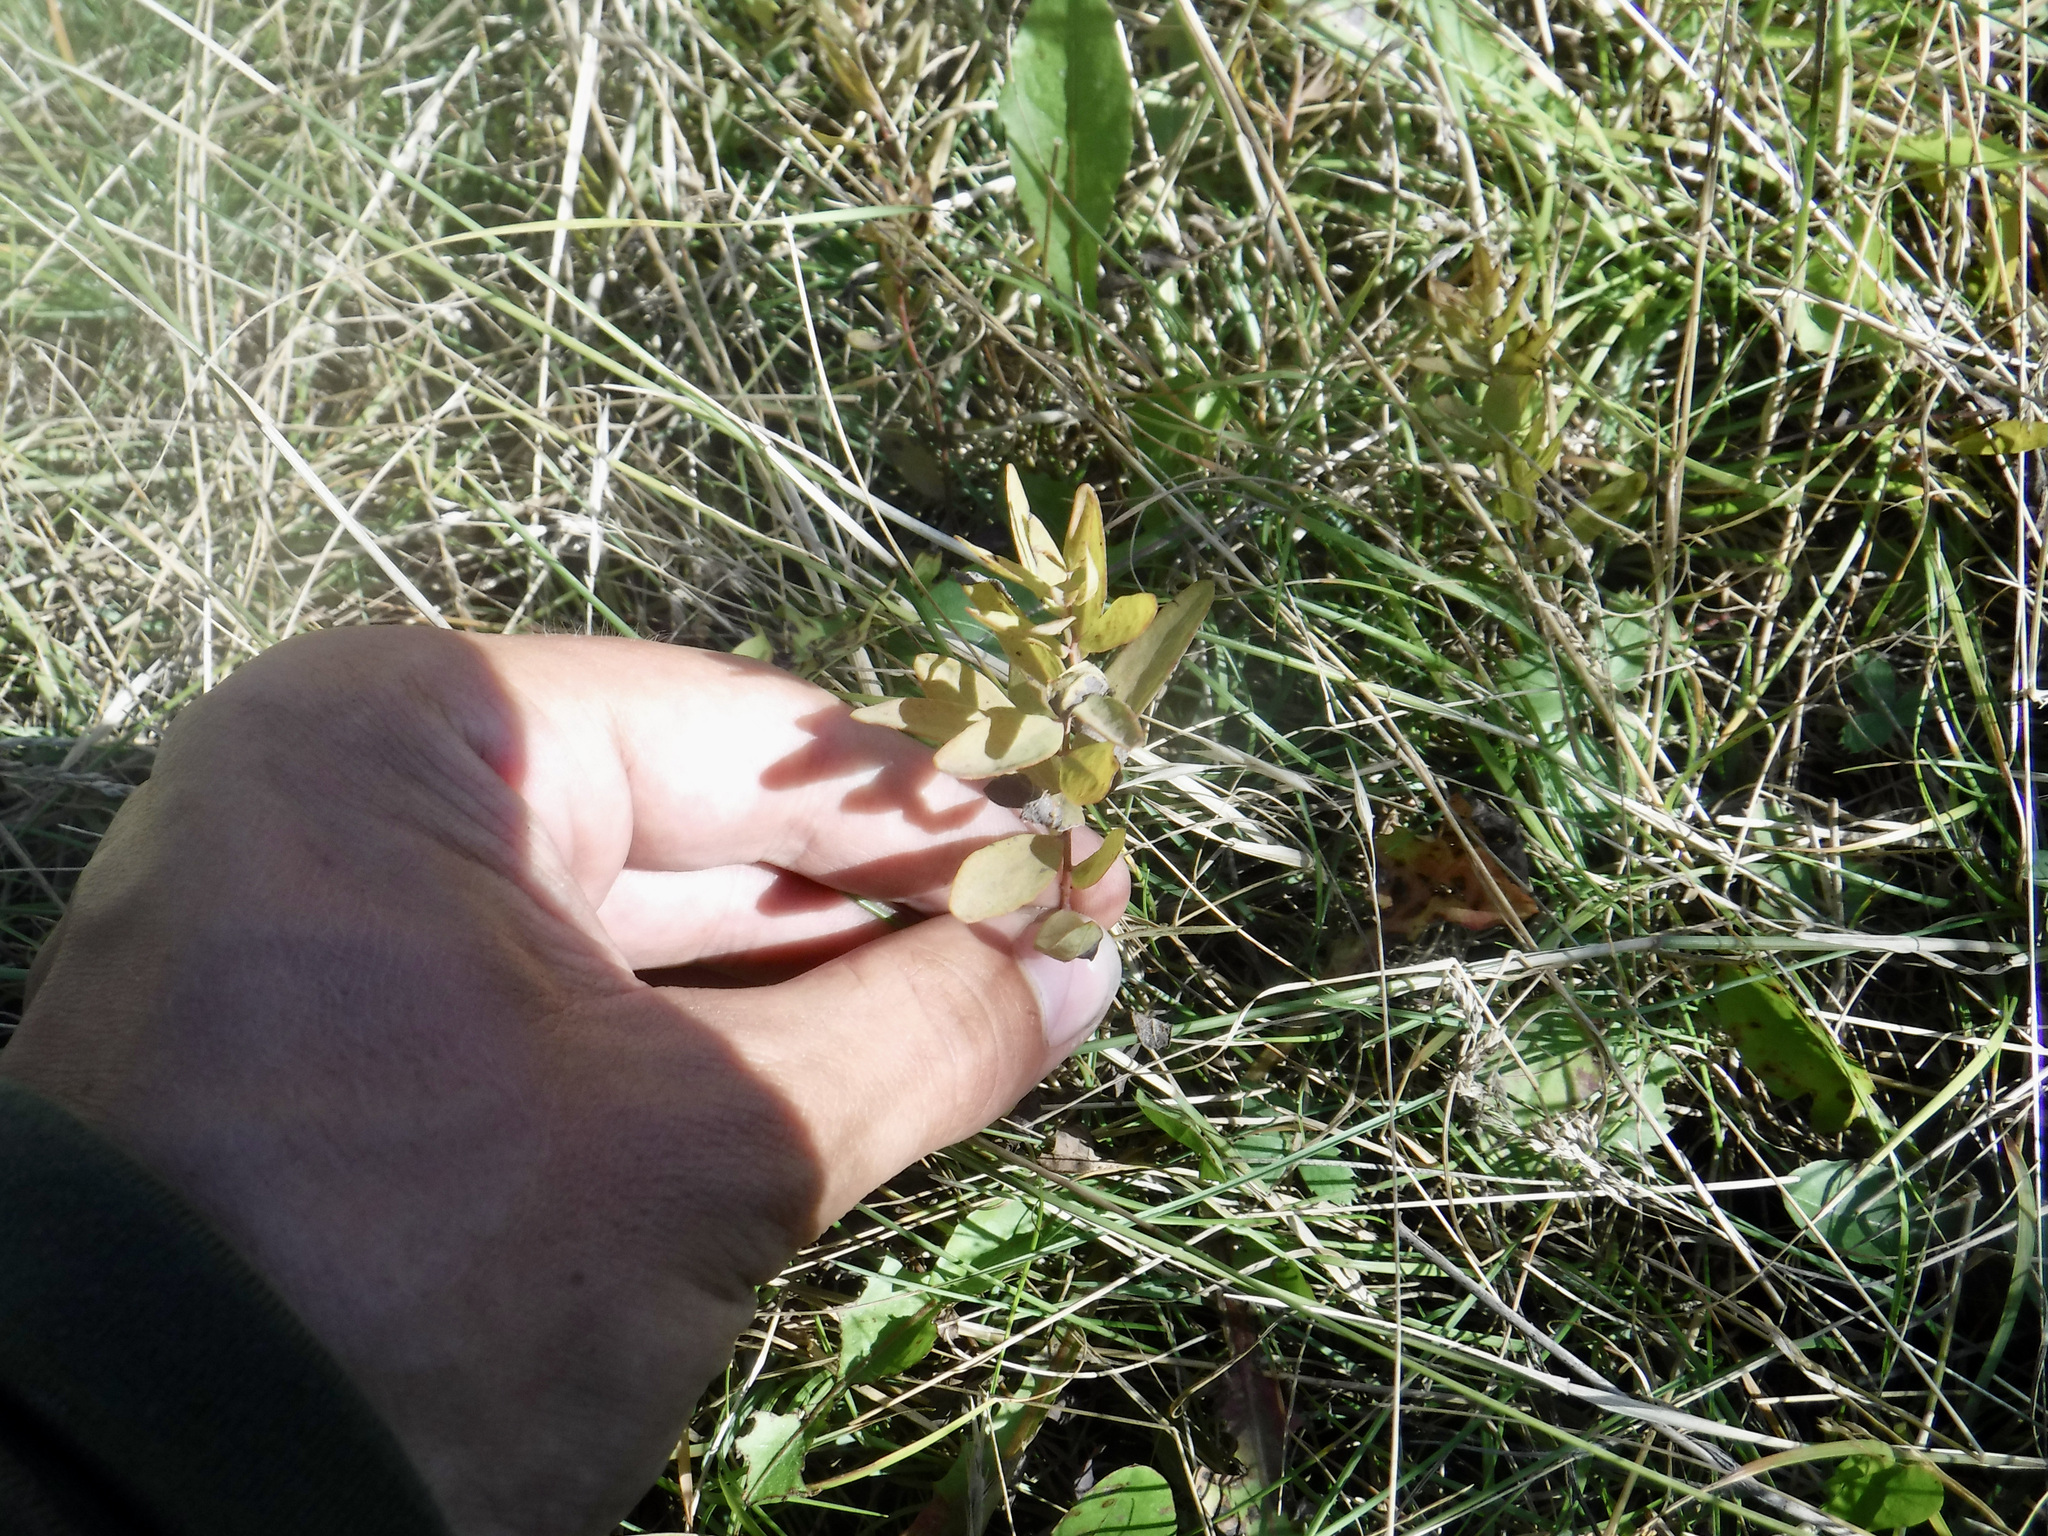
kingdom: Plantae
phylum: Tracheophyta
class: Magnoliopsida
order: Santalales
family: Comandraceae
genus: Comandra
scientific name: Comandra umbellata
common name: Bastard toadflax
